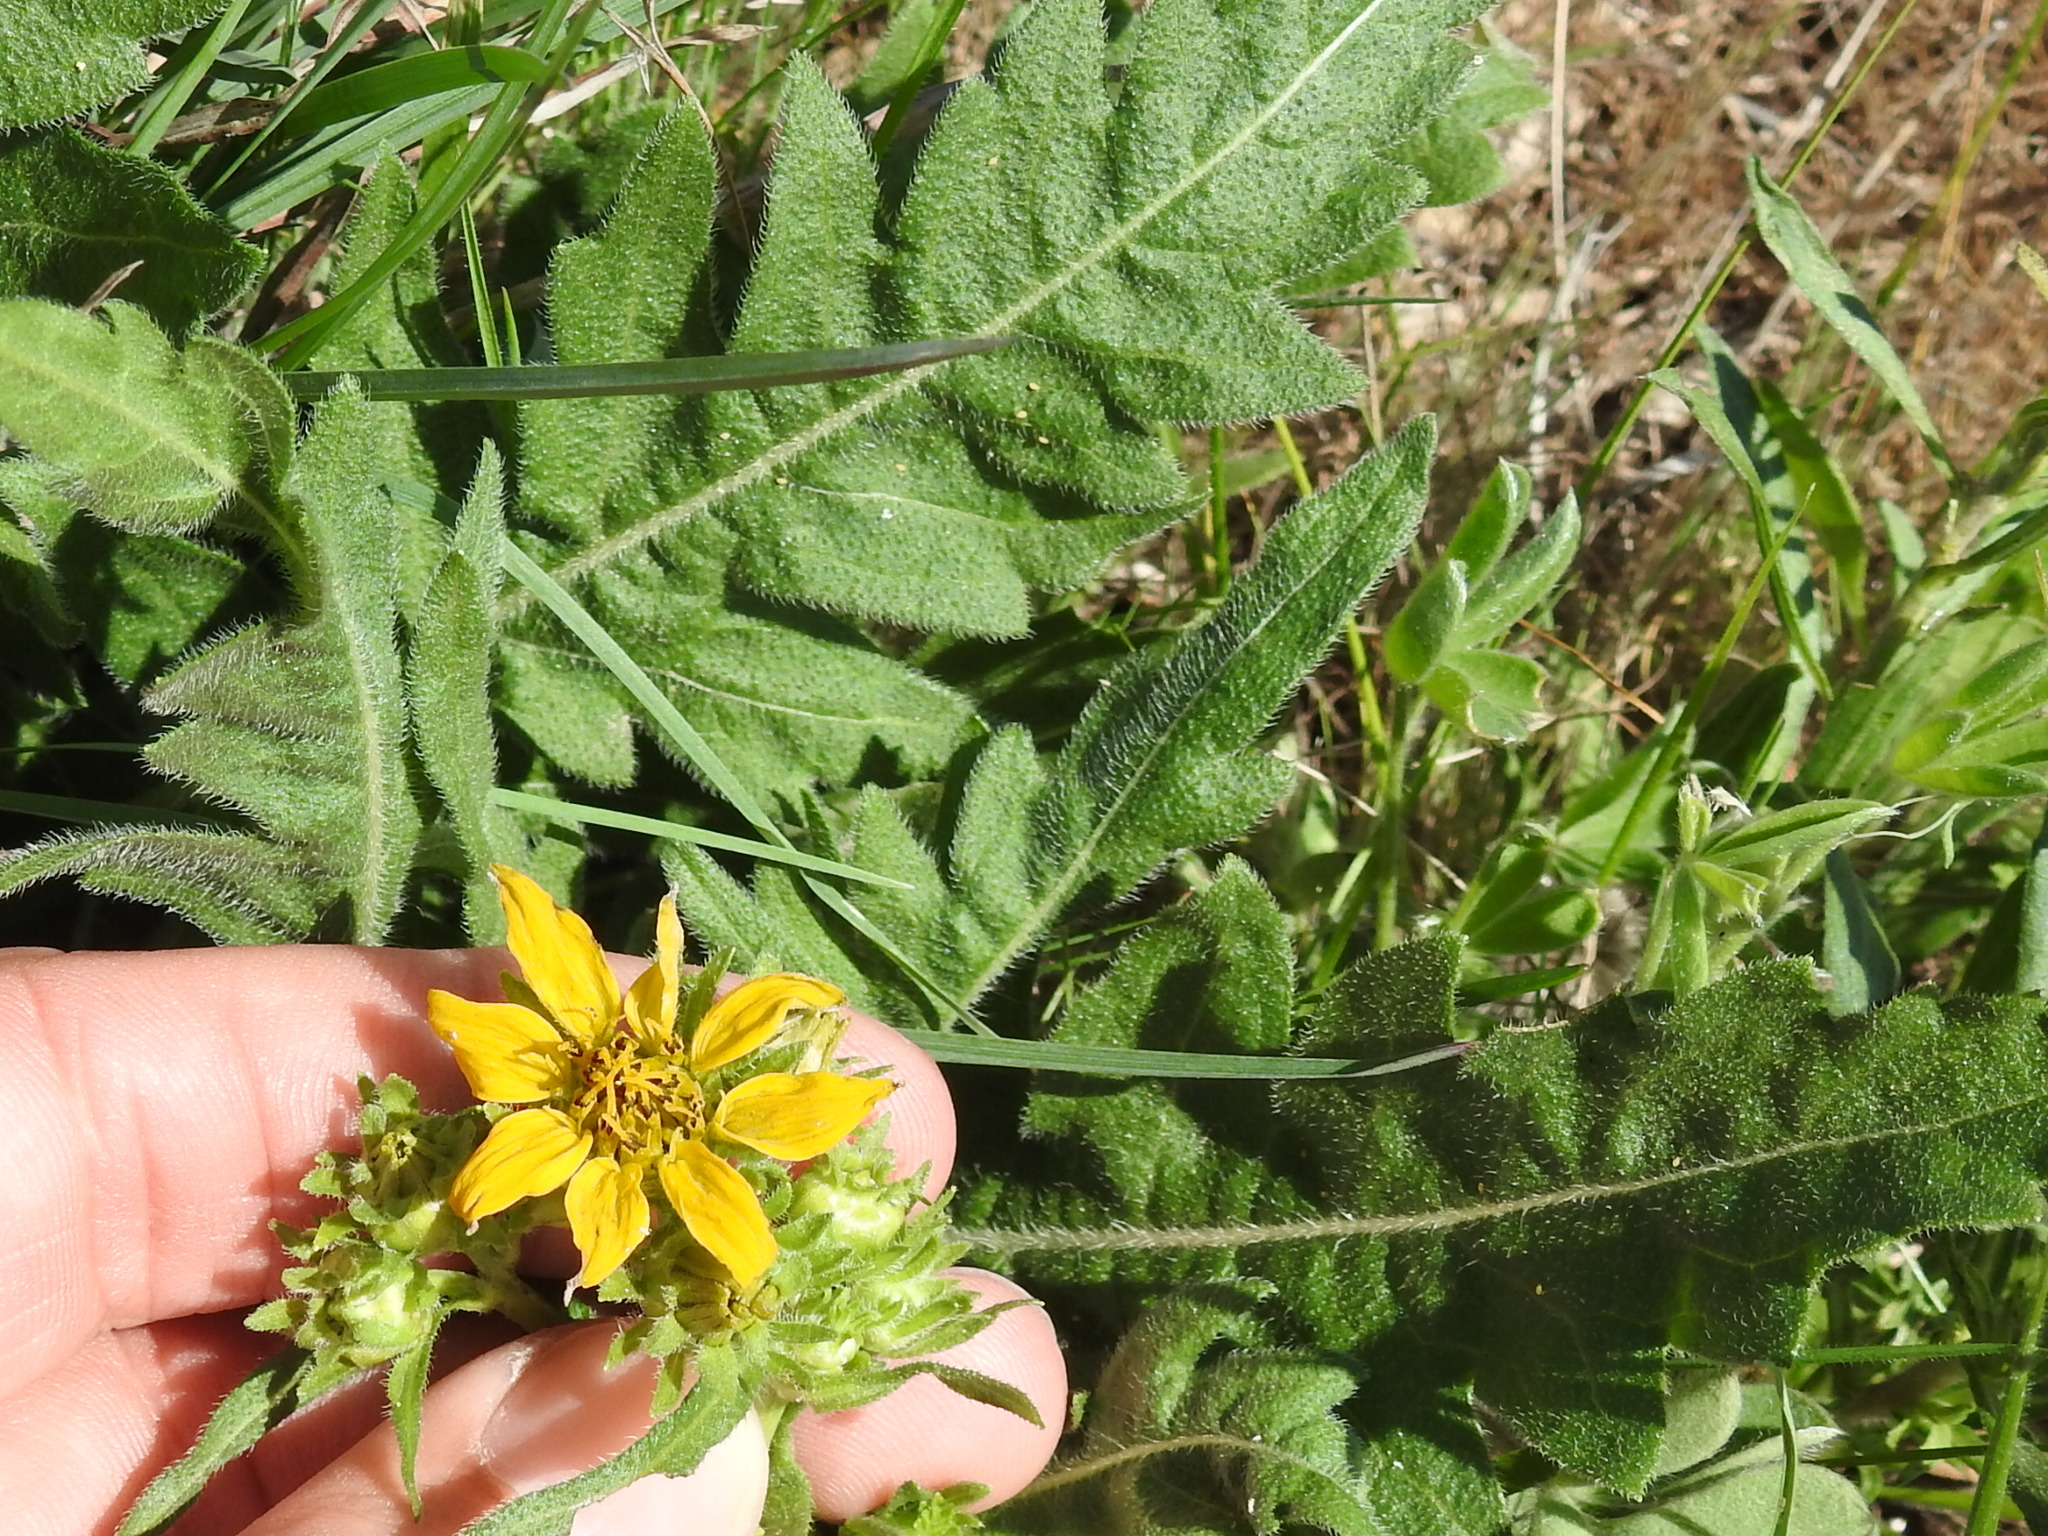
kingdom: Plantae
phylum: Tracheophyta
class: Magnoliopsida
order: Asterales
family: Asteraceae
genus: Engelmannia
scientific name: Engelmannia peristenia
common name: Engelmann's daisy
